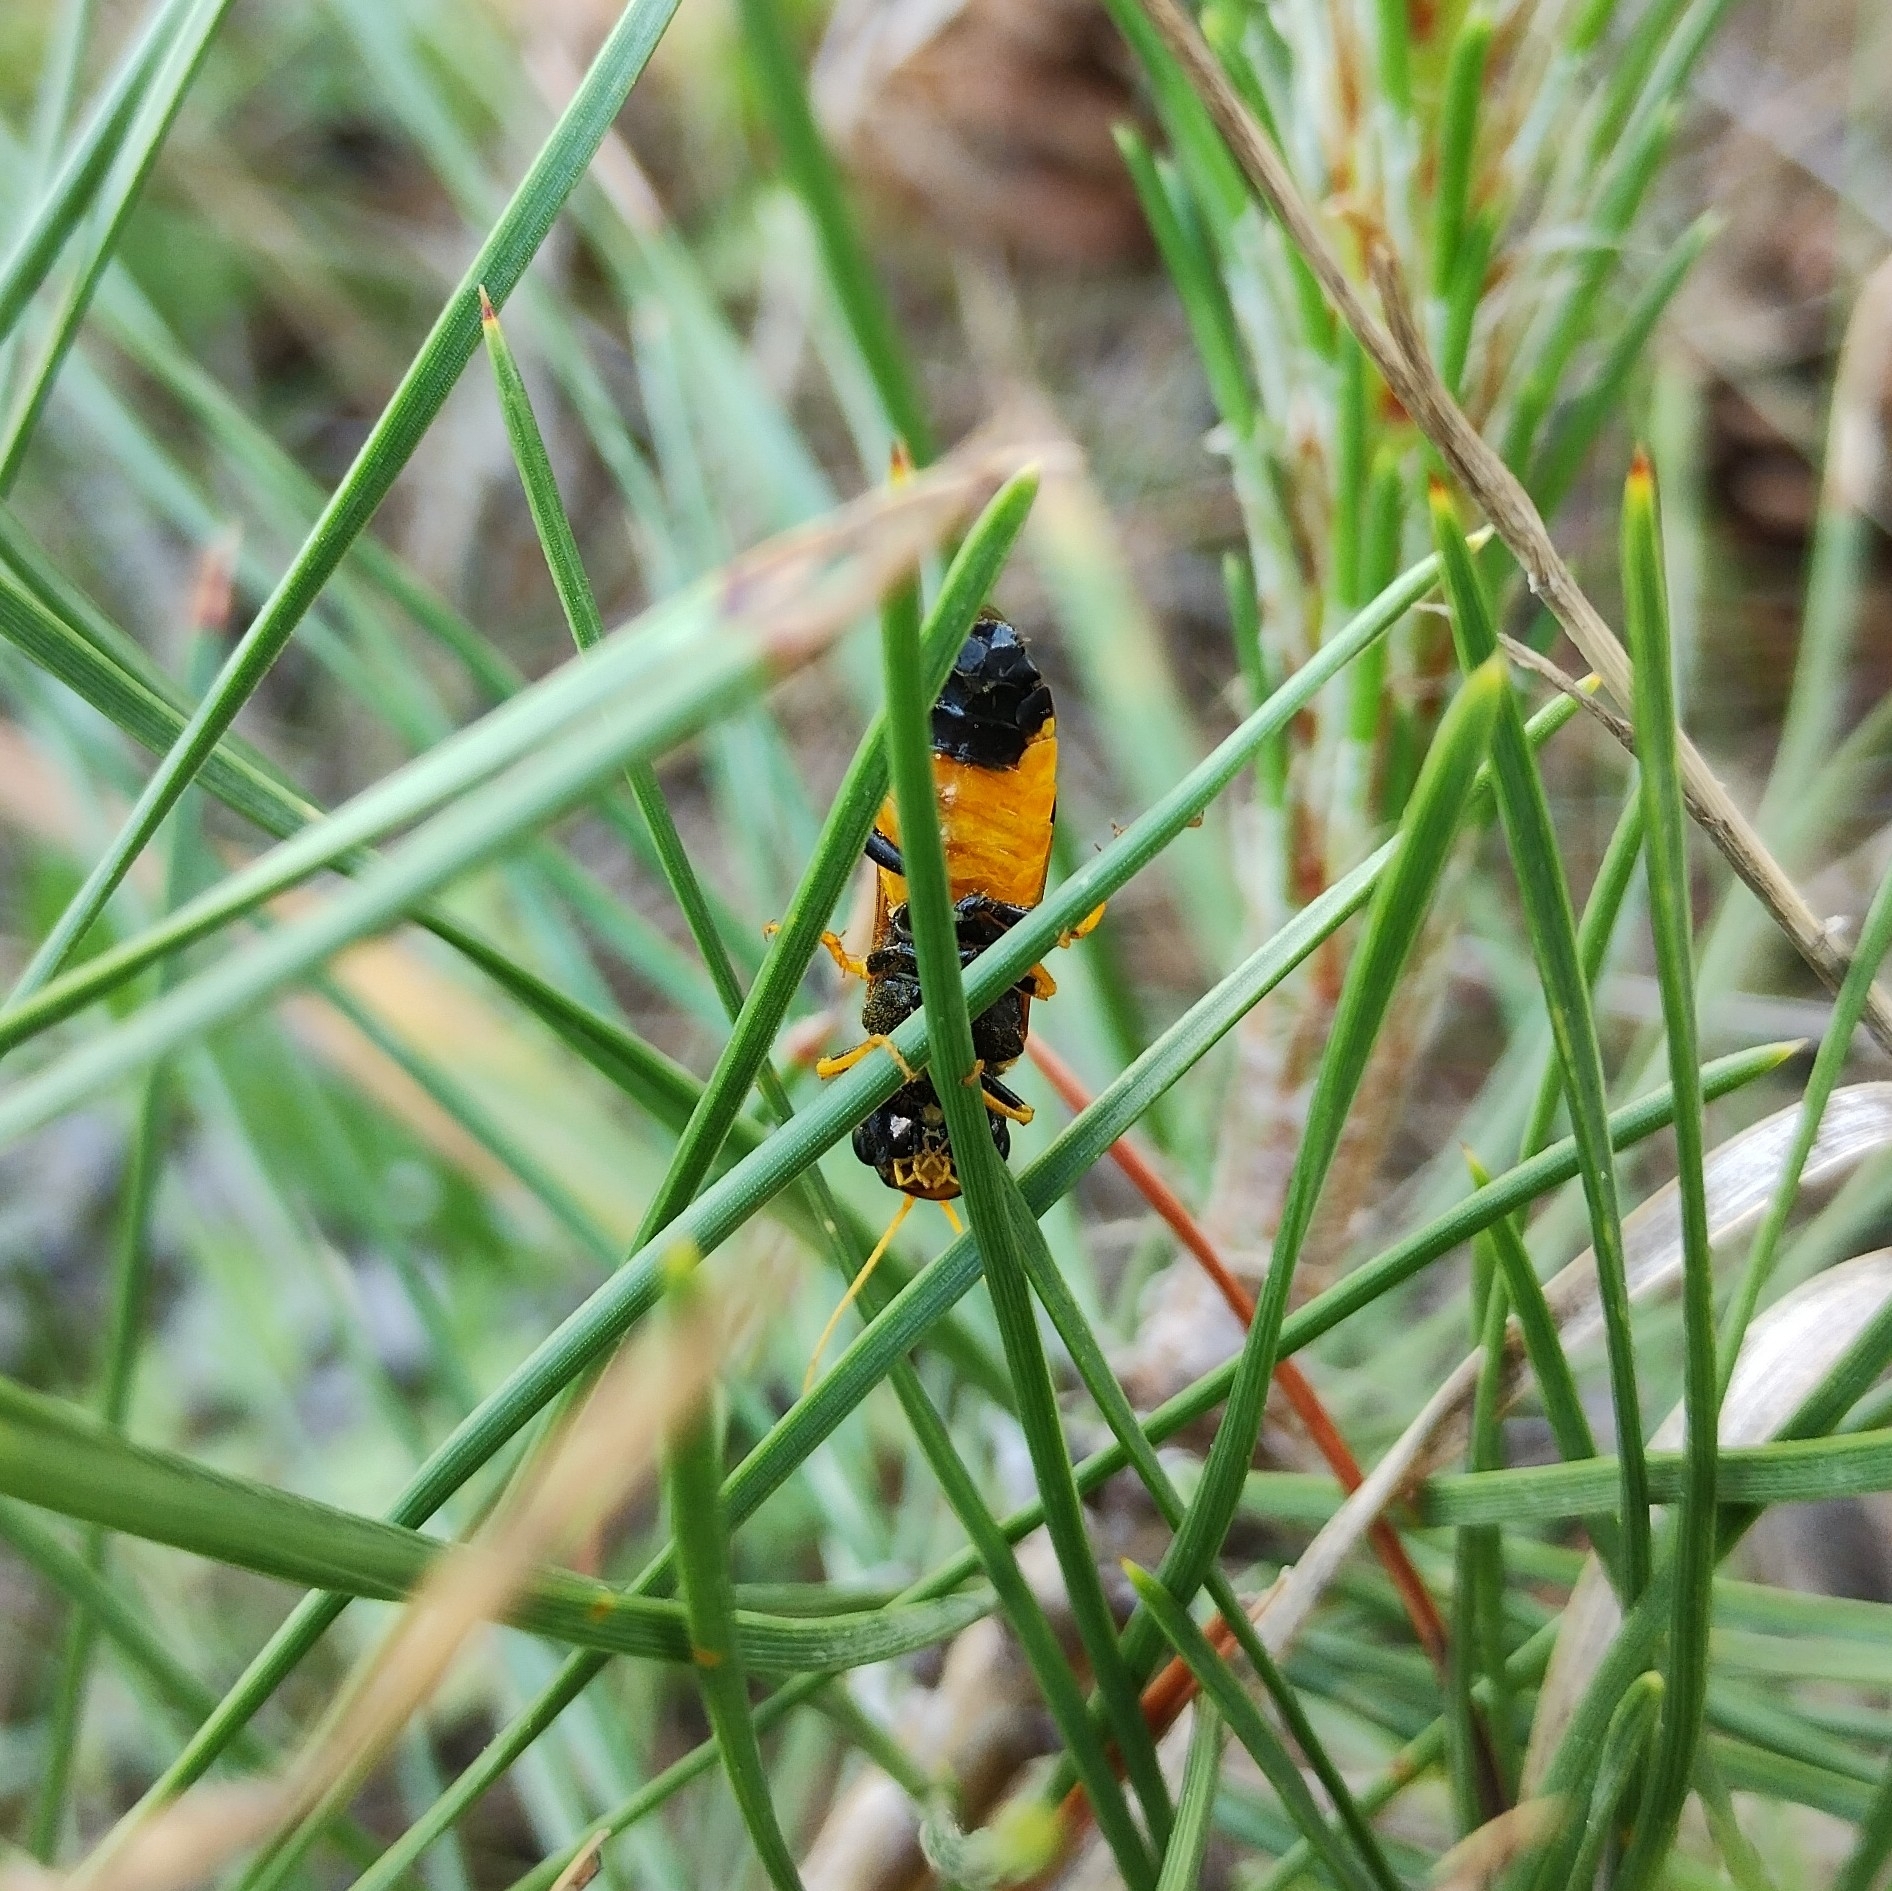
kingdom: Animalia
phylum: Arthropoda
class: Insecta
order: Hymenoptera
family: Pamphiliidae
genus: Acantholyda
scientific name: Acantholyda hieroglyphica
